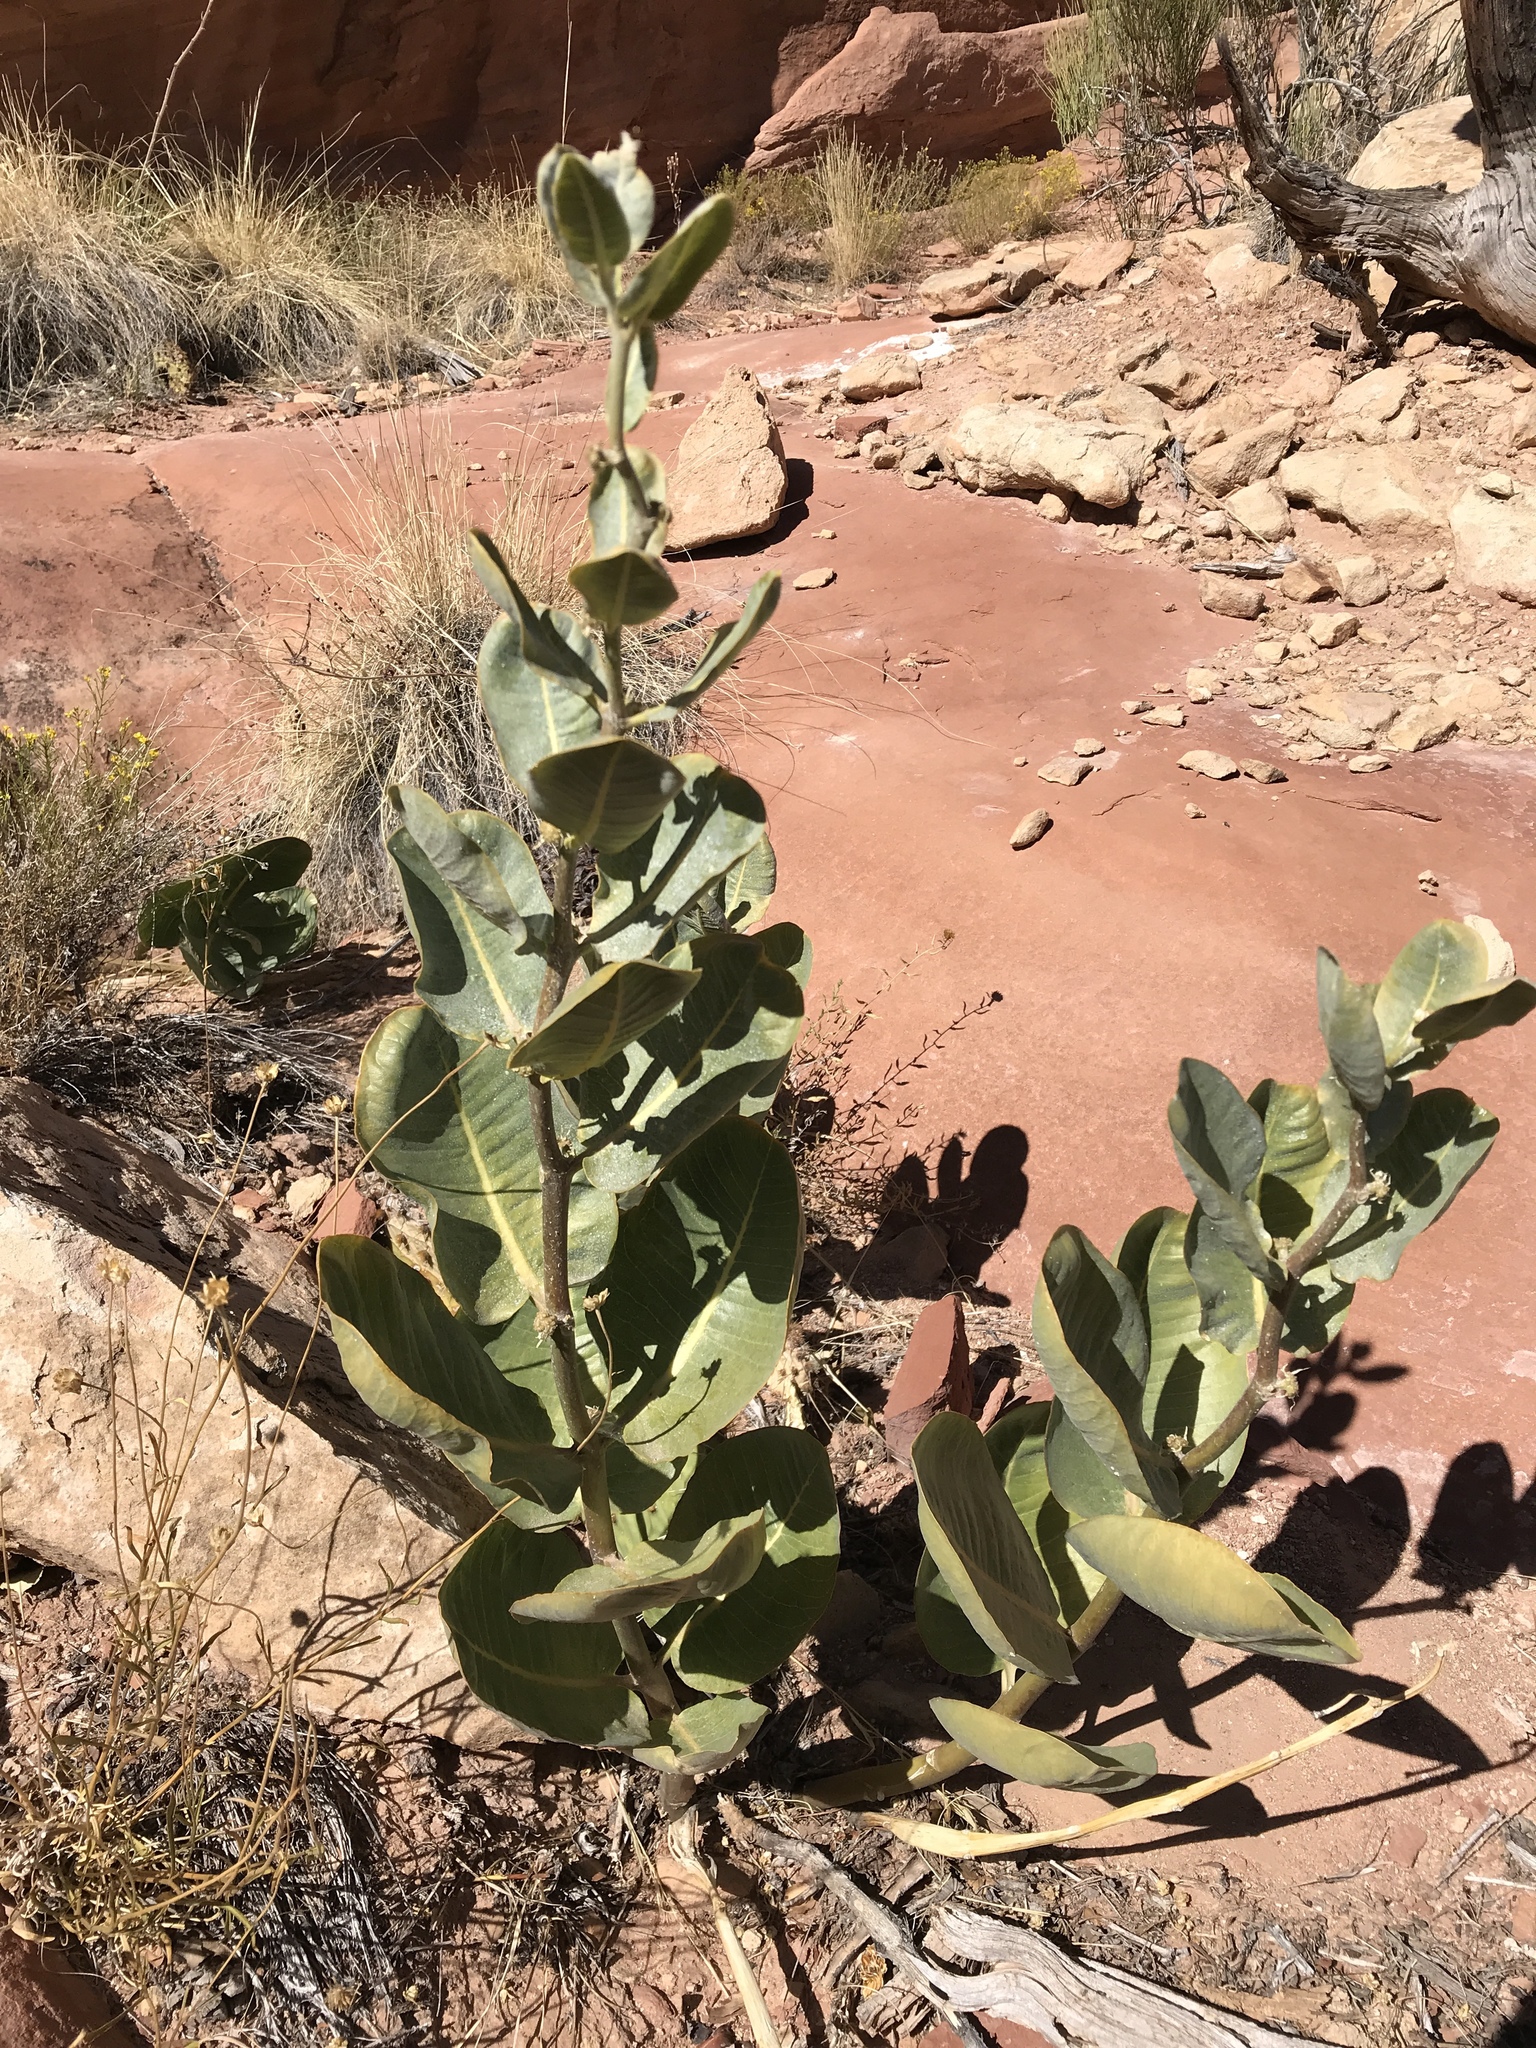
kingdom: Plantae
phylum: Tracheophyta
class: Magnoliopsida
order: Gentianales
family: Apocynaceae
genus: Asclepias
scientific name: Asclepias latifolia
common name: Broadleaf milkweed
